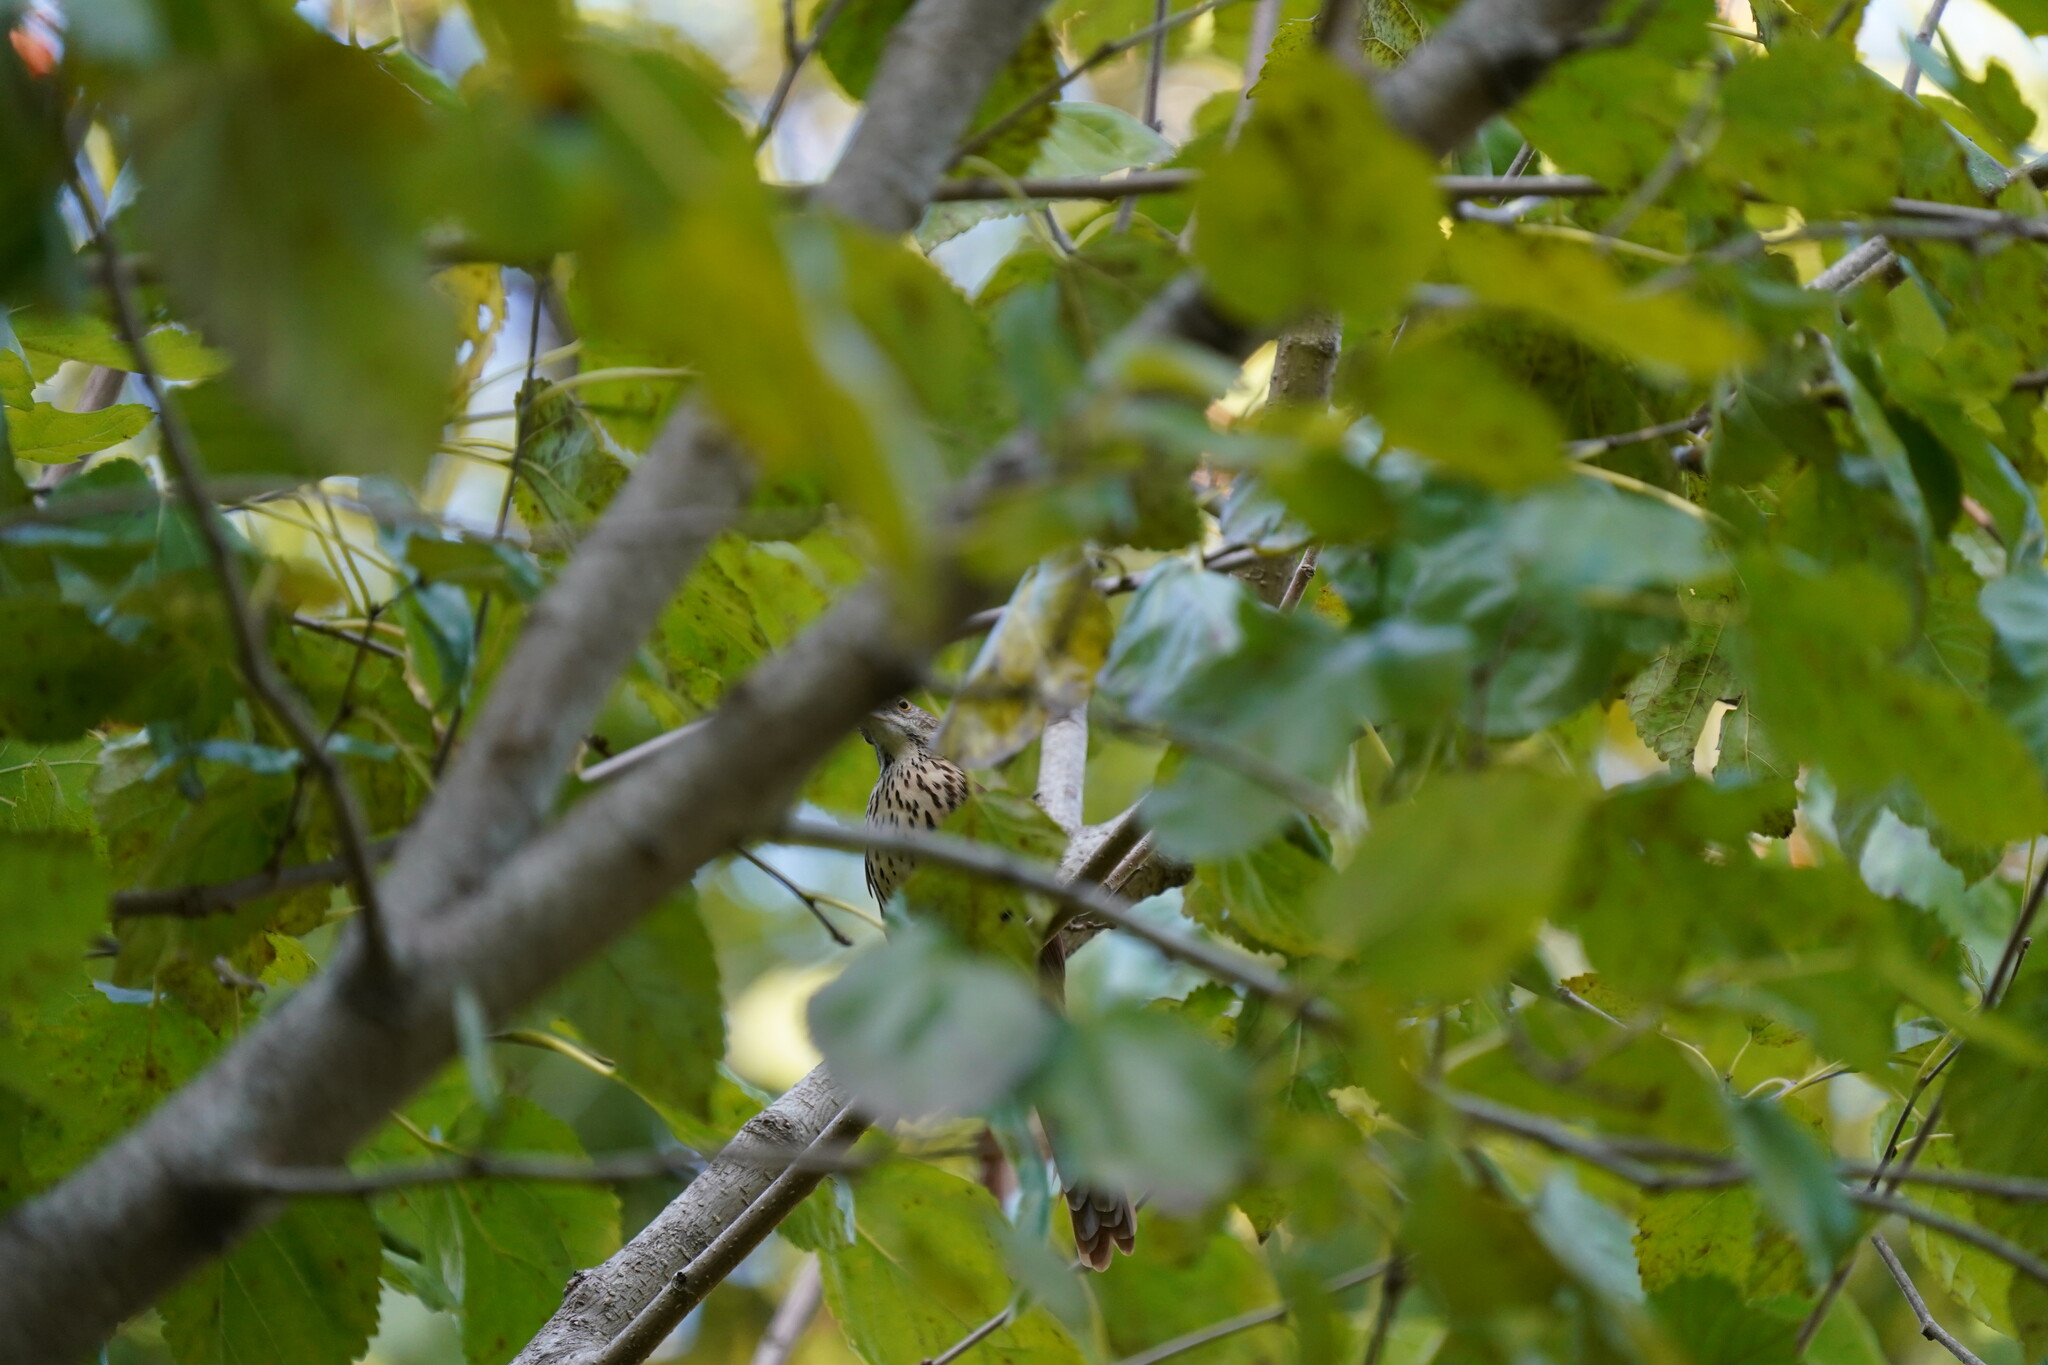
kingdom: Animalia
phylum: Chordata
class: Aves
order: Passeriformes
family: Mimidae
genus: Toxostoma
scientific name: Toxostoma rufum
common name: Brown thrasher
